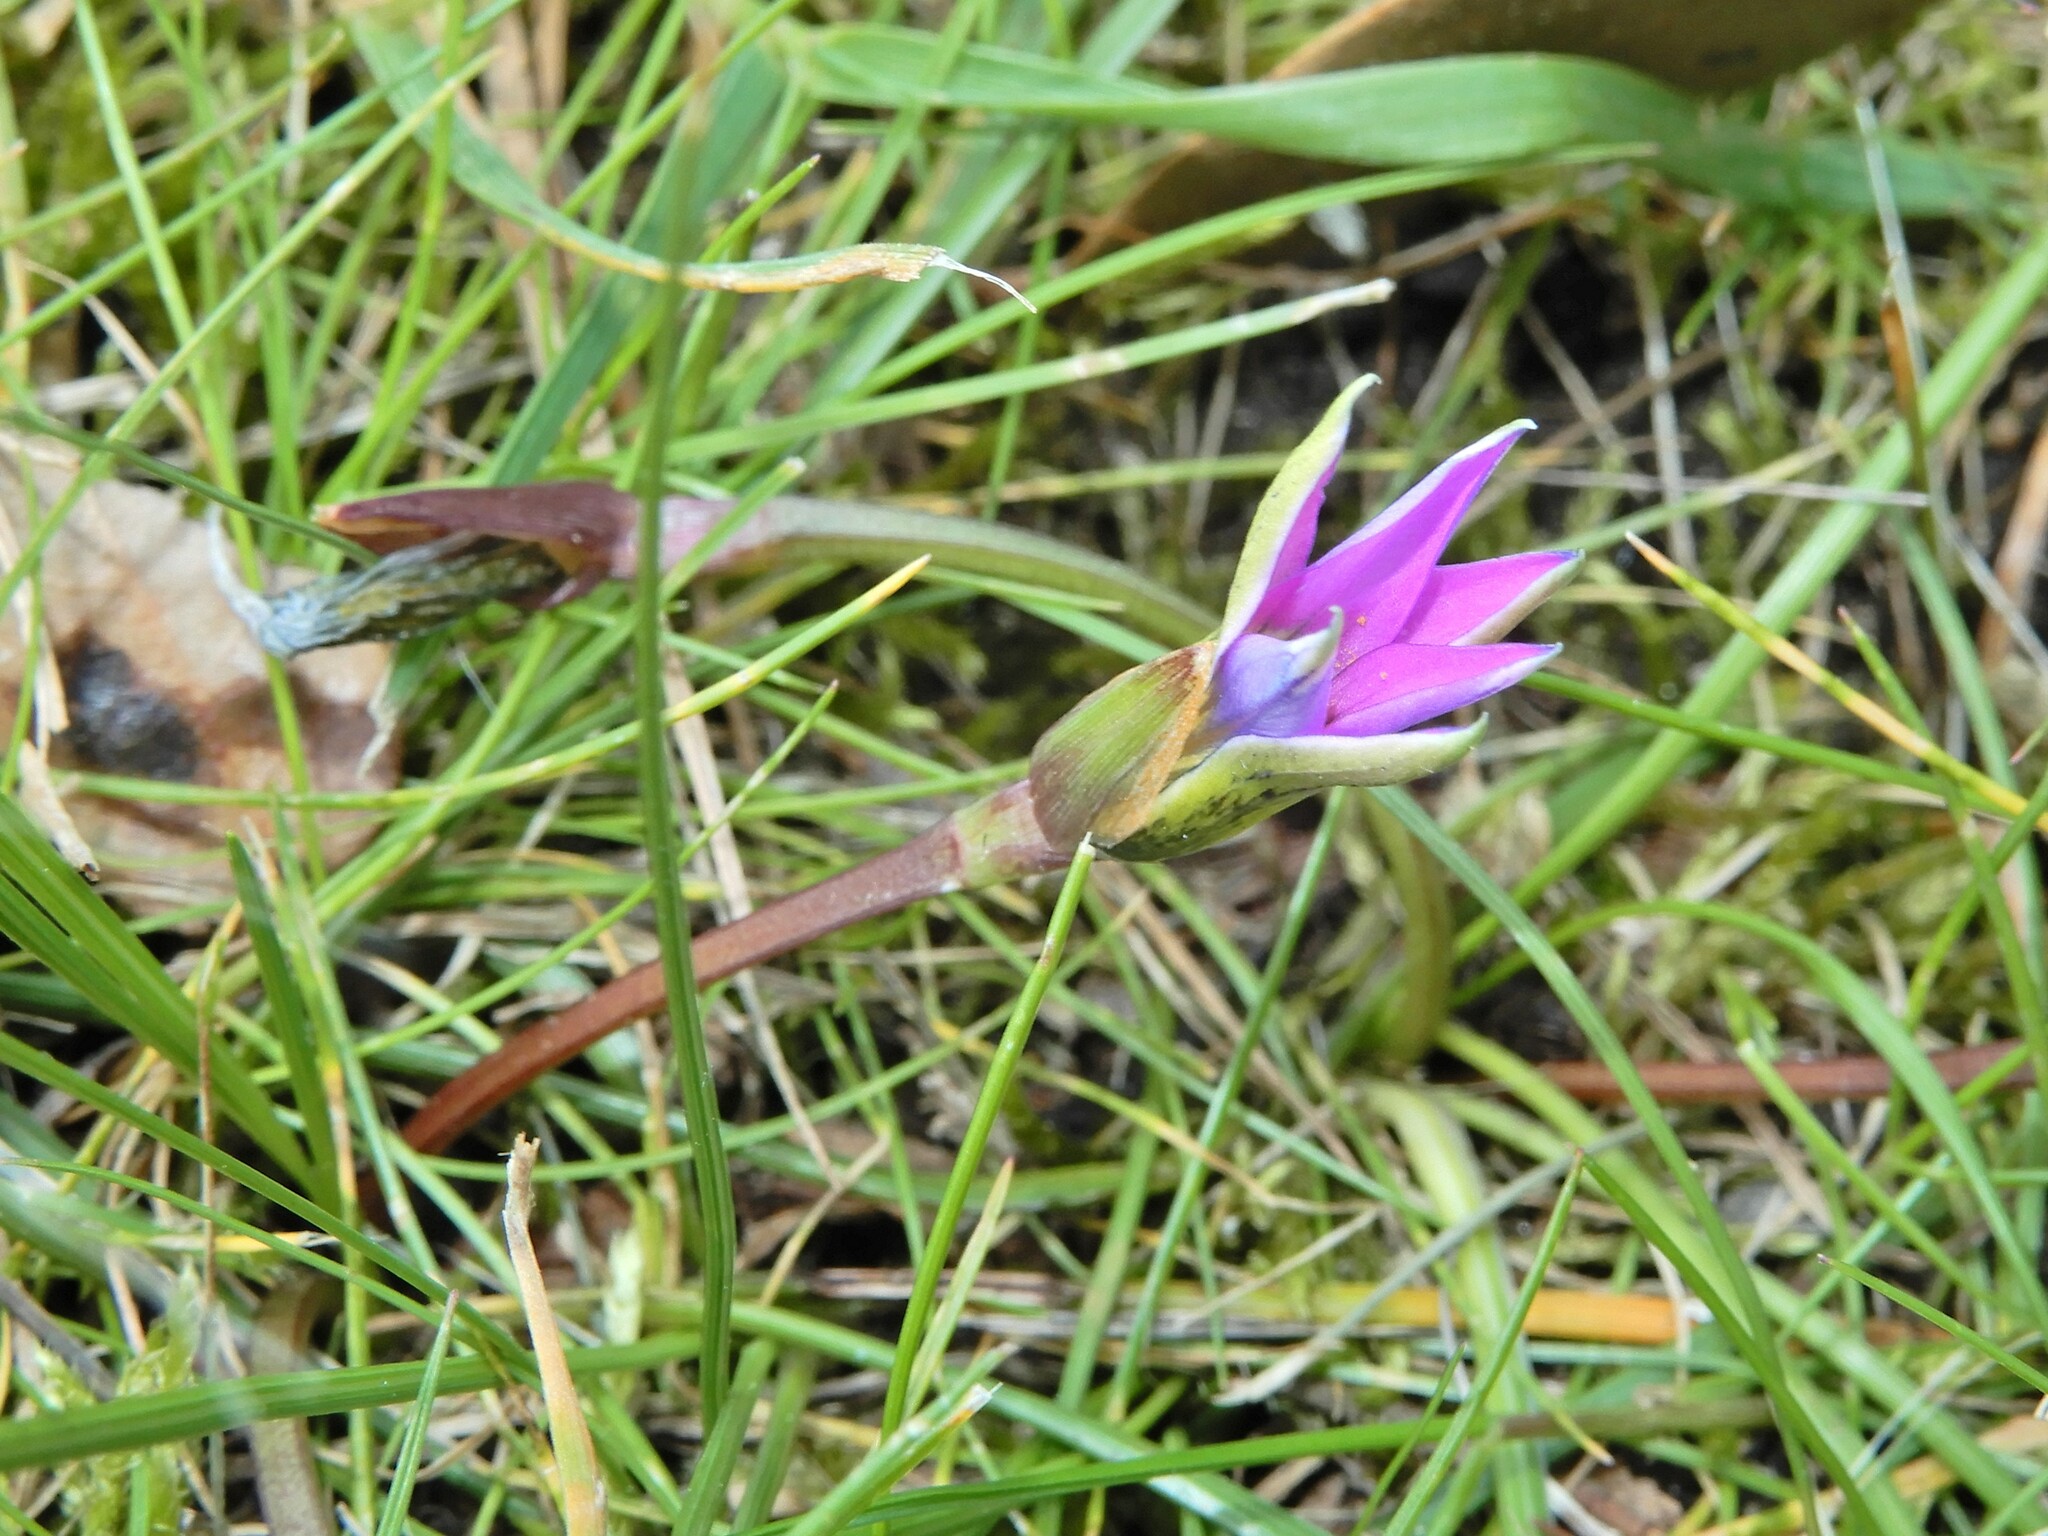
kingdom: Plantae
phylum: Tracheophyta
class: Liliopsida
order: Asparagales
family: Iridaceae
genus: Romulea
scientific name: Romulea rosea
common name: Oniongrass
